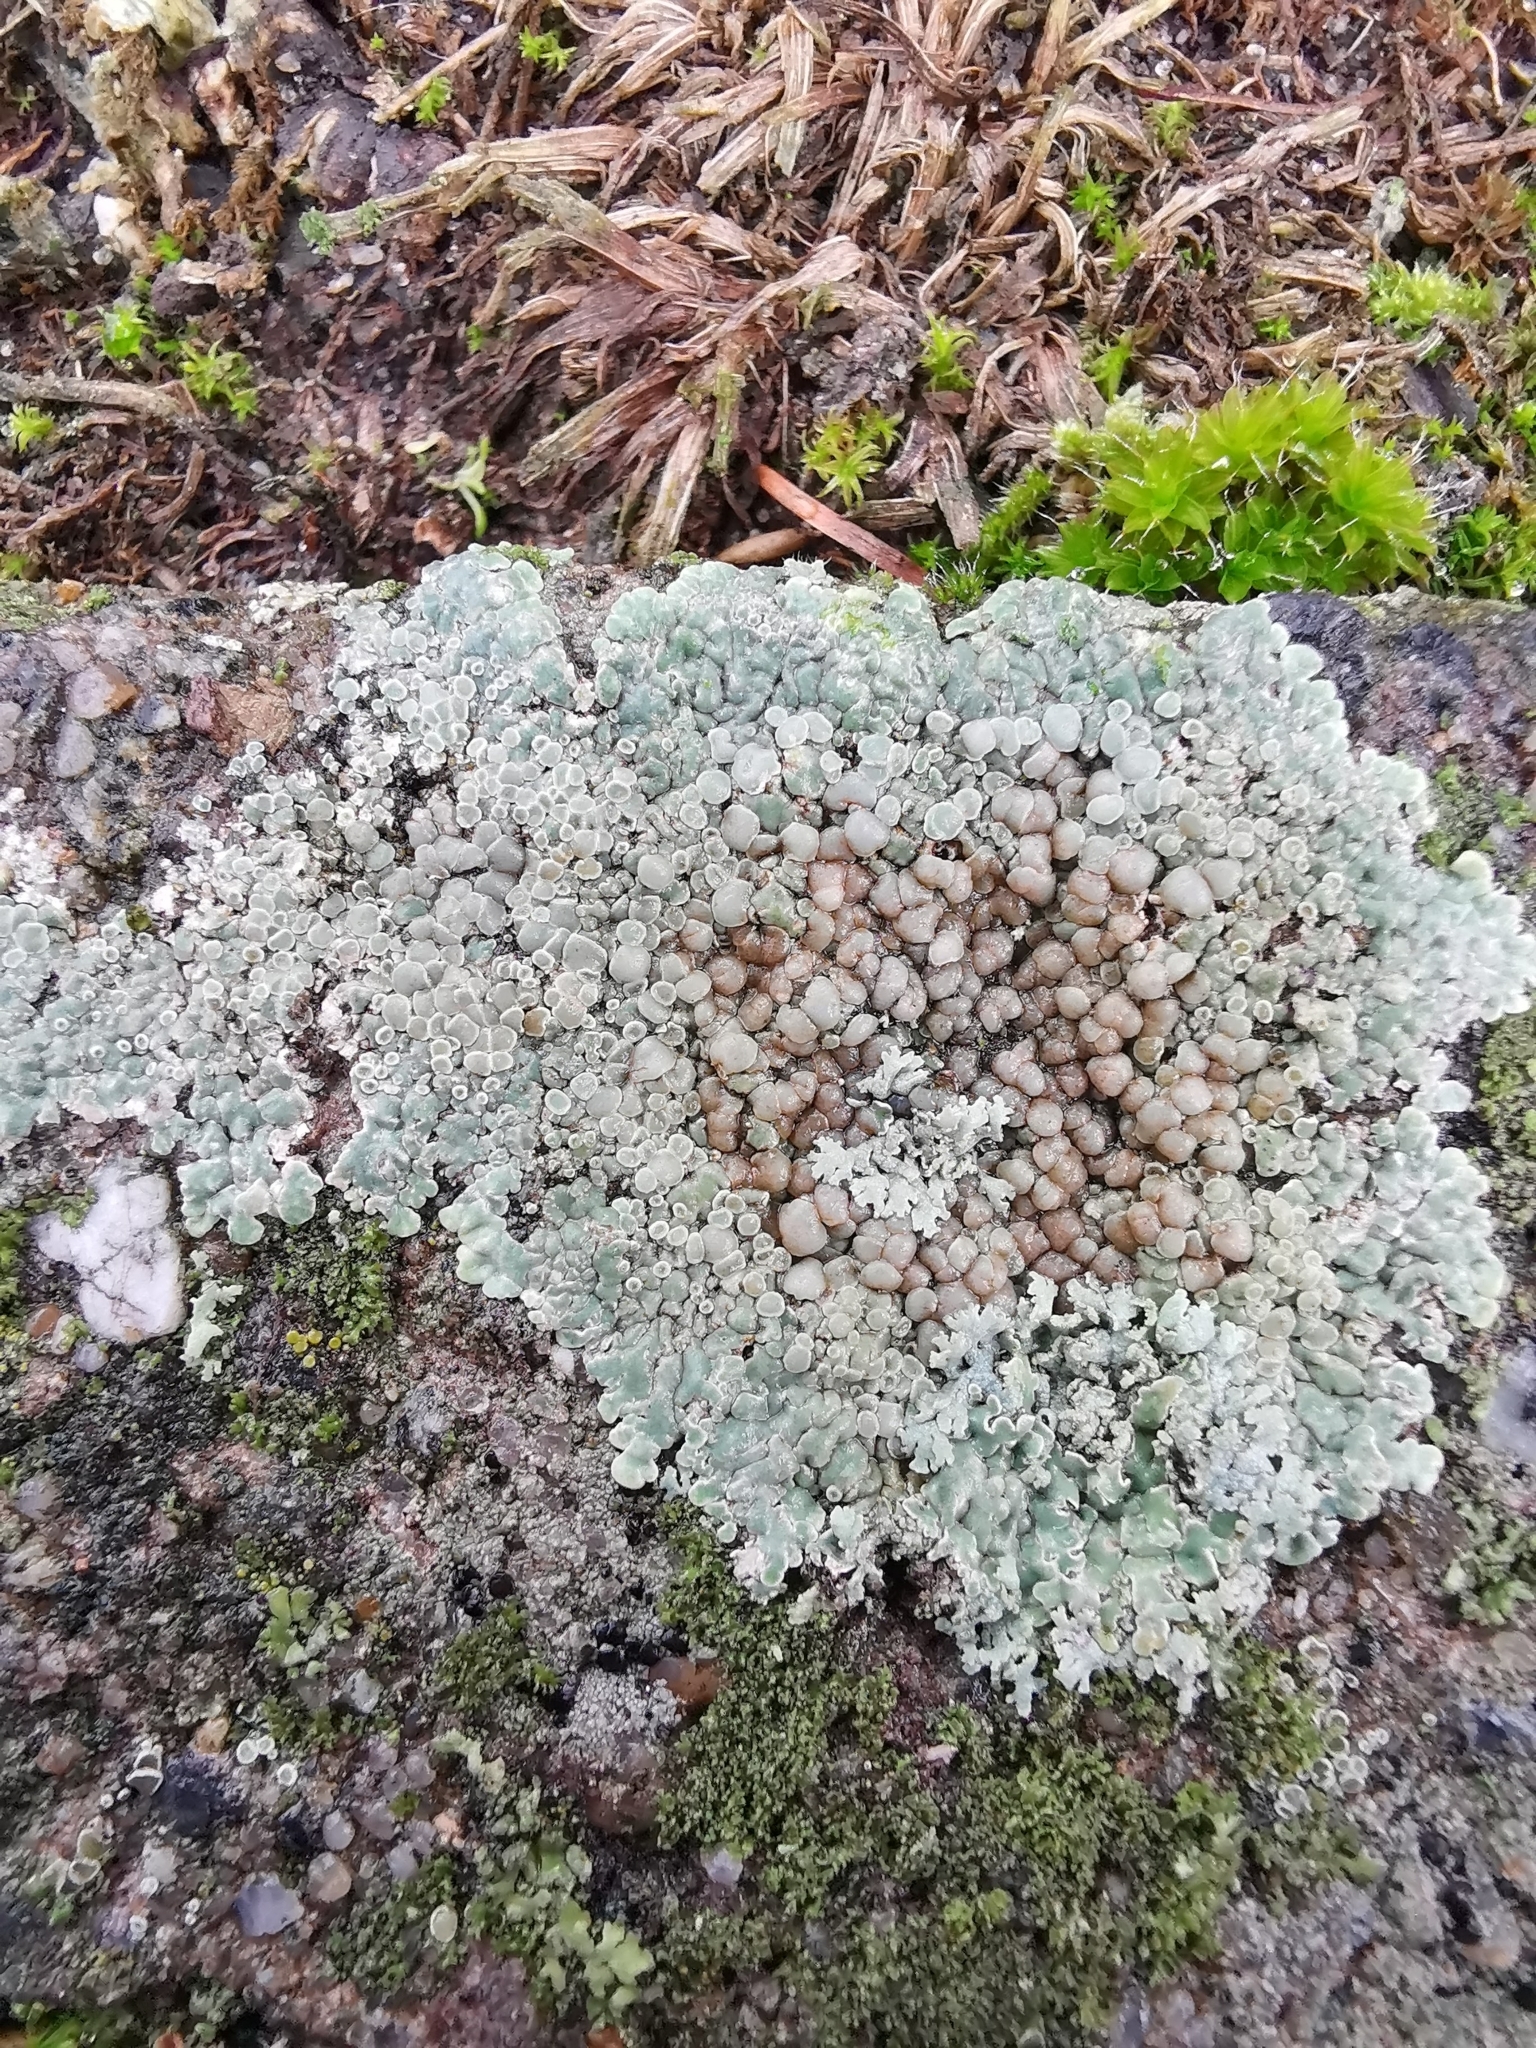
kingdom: Fungi
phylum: Ascomycota
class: Lecanoromycetes
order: Lecanorales
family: Lecanoraceae
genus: Protoparmeliopsis
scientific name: Protoparmeliopsis muralis
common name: Stonewall rim lichen
